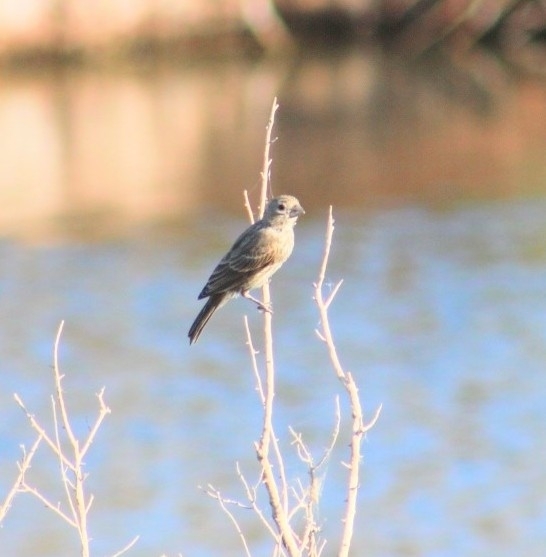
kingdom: Animalia
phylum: Chordata
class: Aves
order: Passeriformes
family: Fringillidae
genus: Haemorhous
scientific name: Haemorhous mexicanus
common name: House finch
